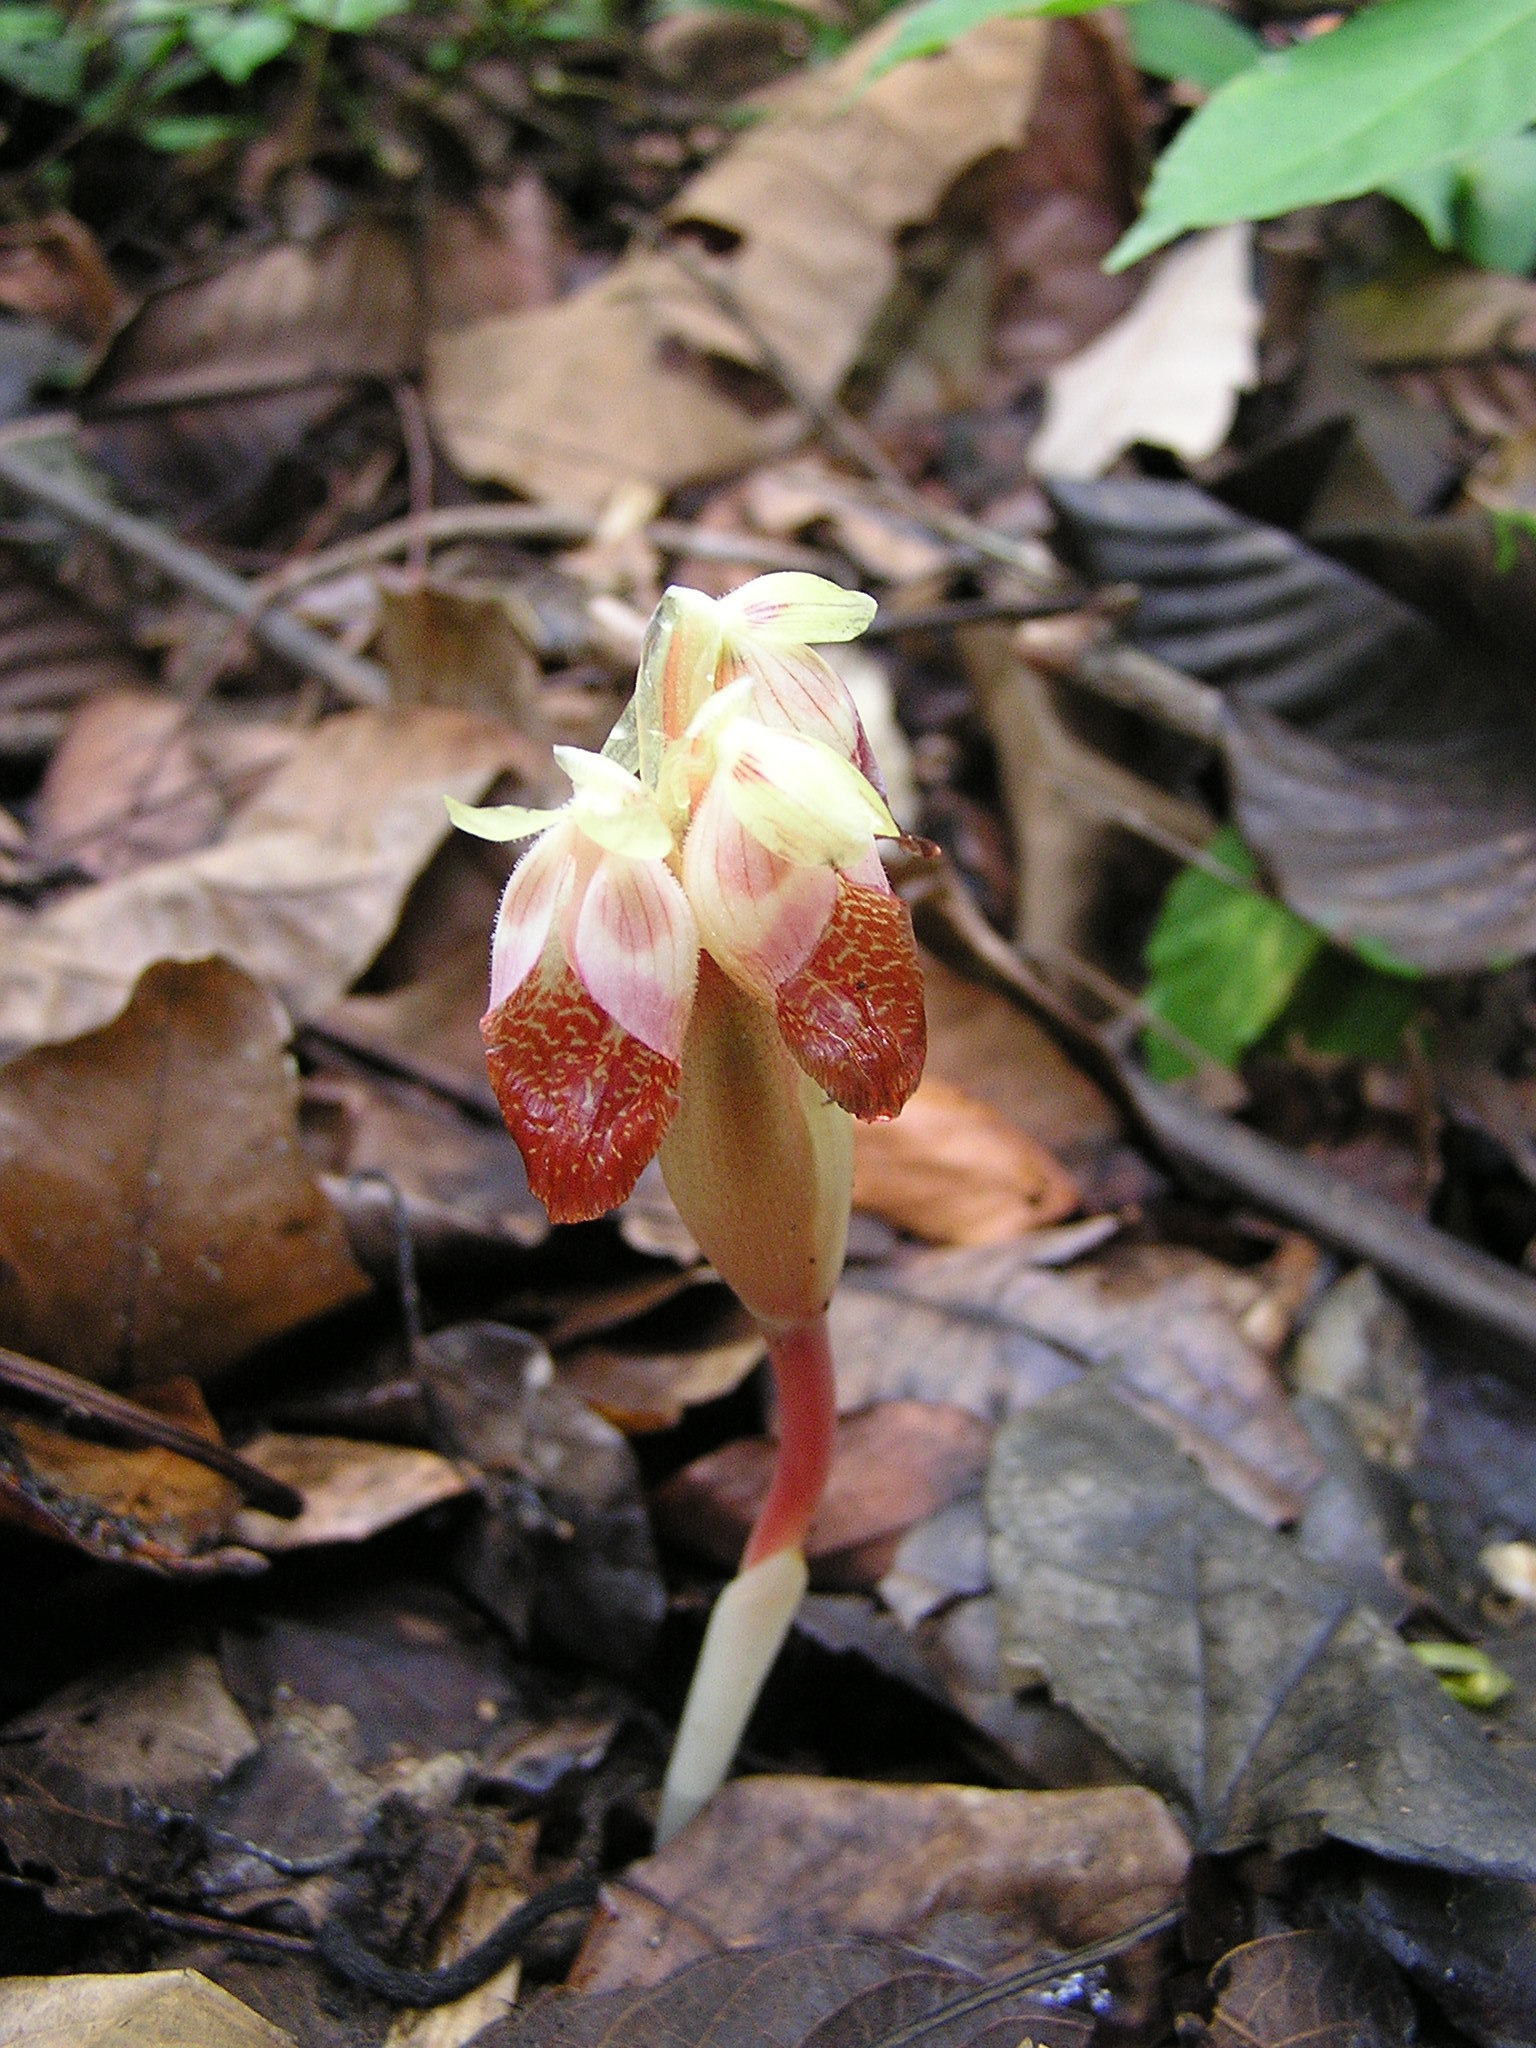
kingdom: Plantae
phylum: Tracheophyta
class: Liliopsida
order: Zingiberales
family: Zingiberaceae
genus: Boesenbergia
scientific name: Boesenbergia siamensis
